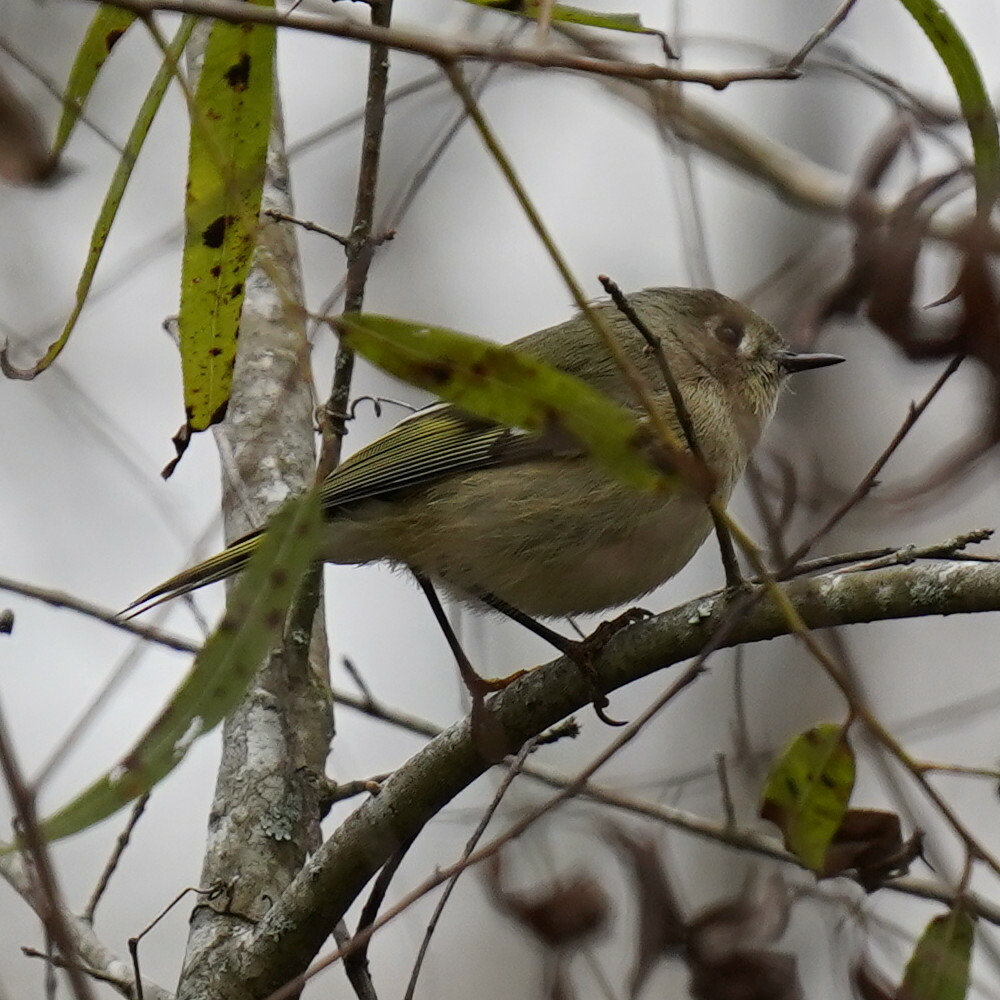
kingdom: Animalia
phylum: Chordata
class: Aves
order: Passeriformes
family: Regulidae
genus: Regulus
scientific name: Regulus calendula
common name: Ruby-crowned kinglet
